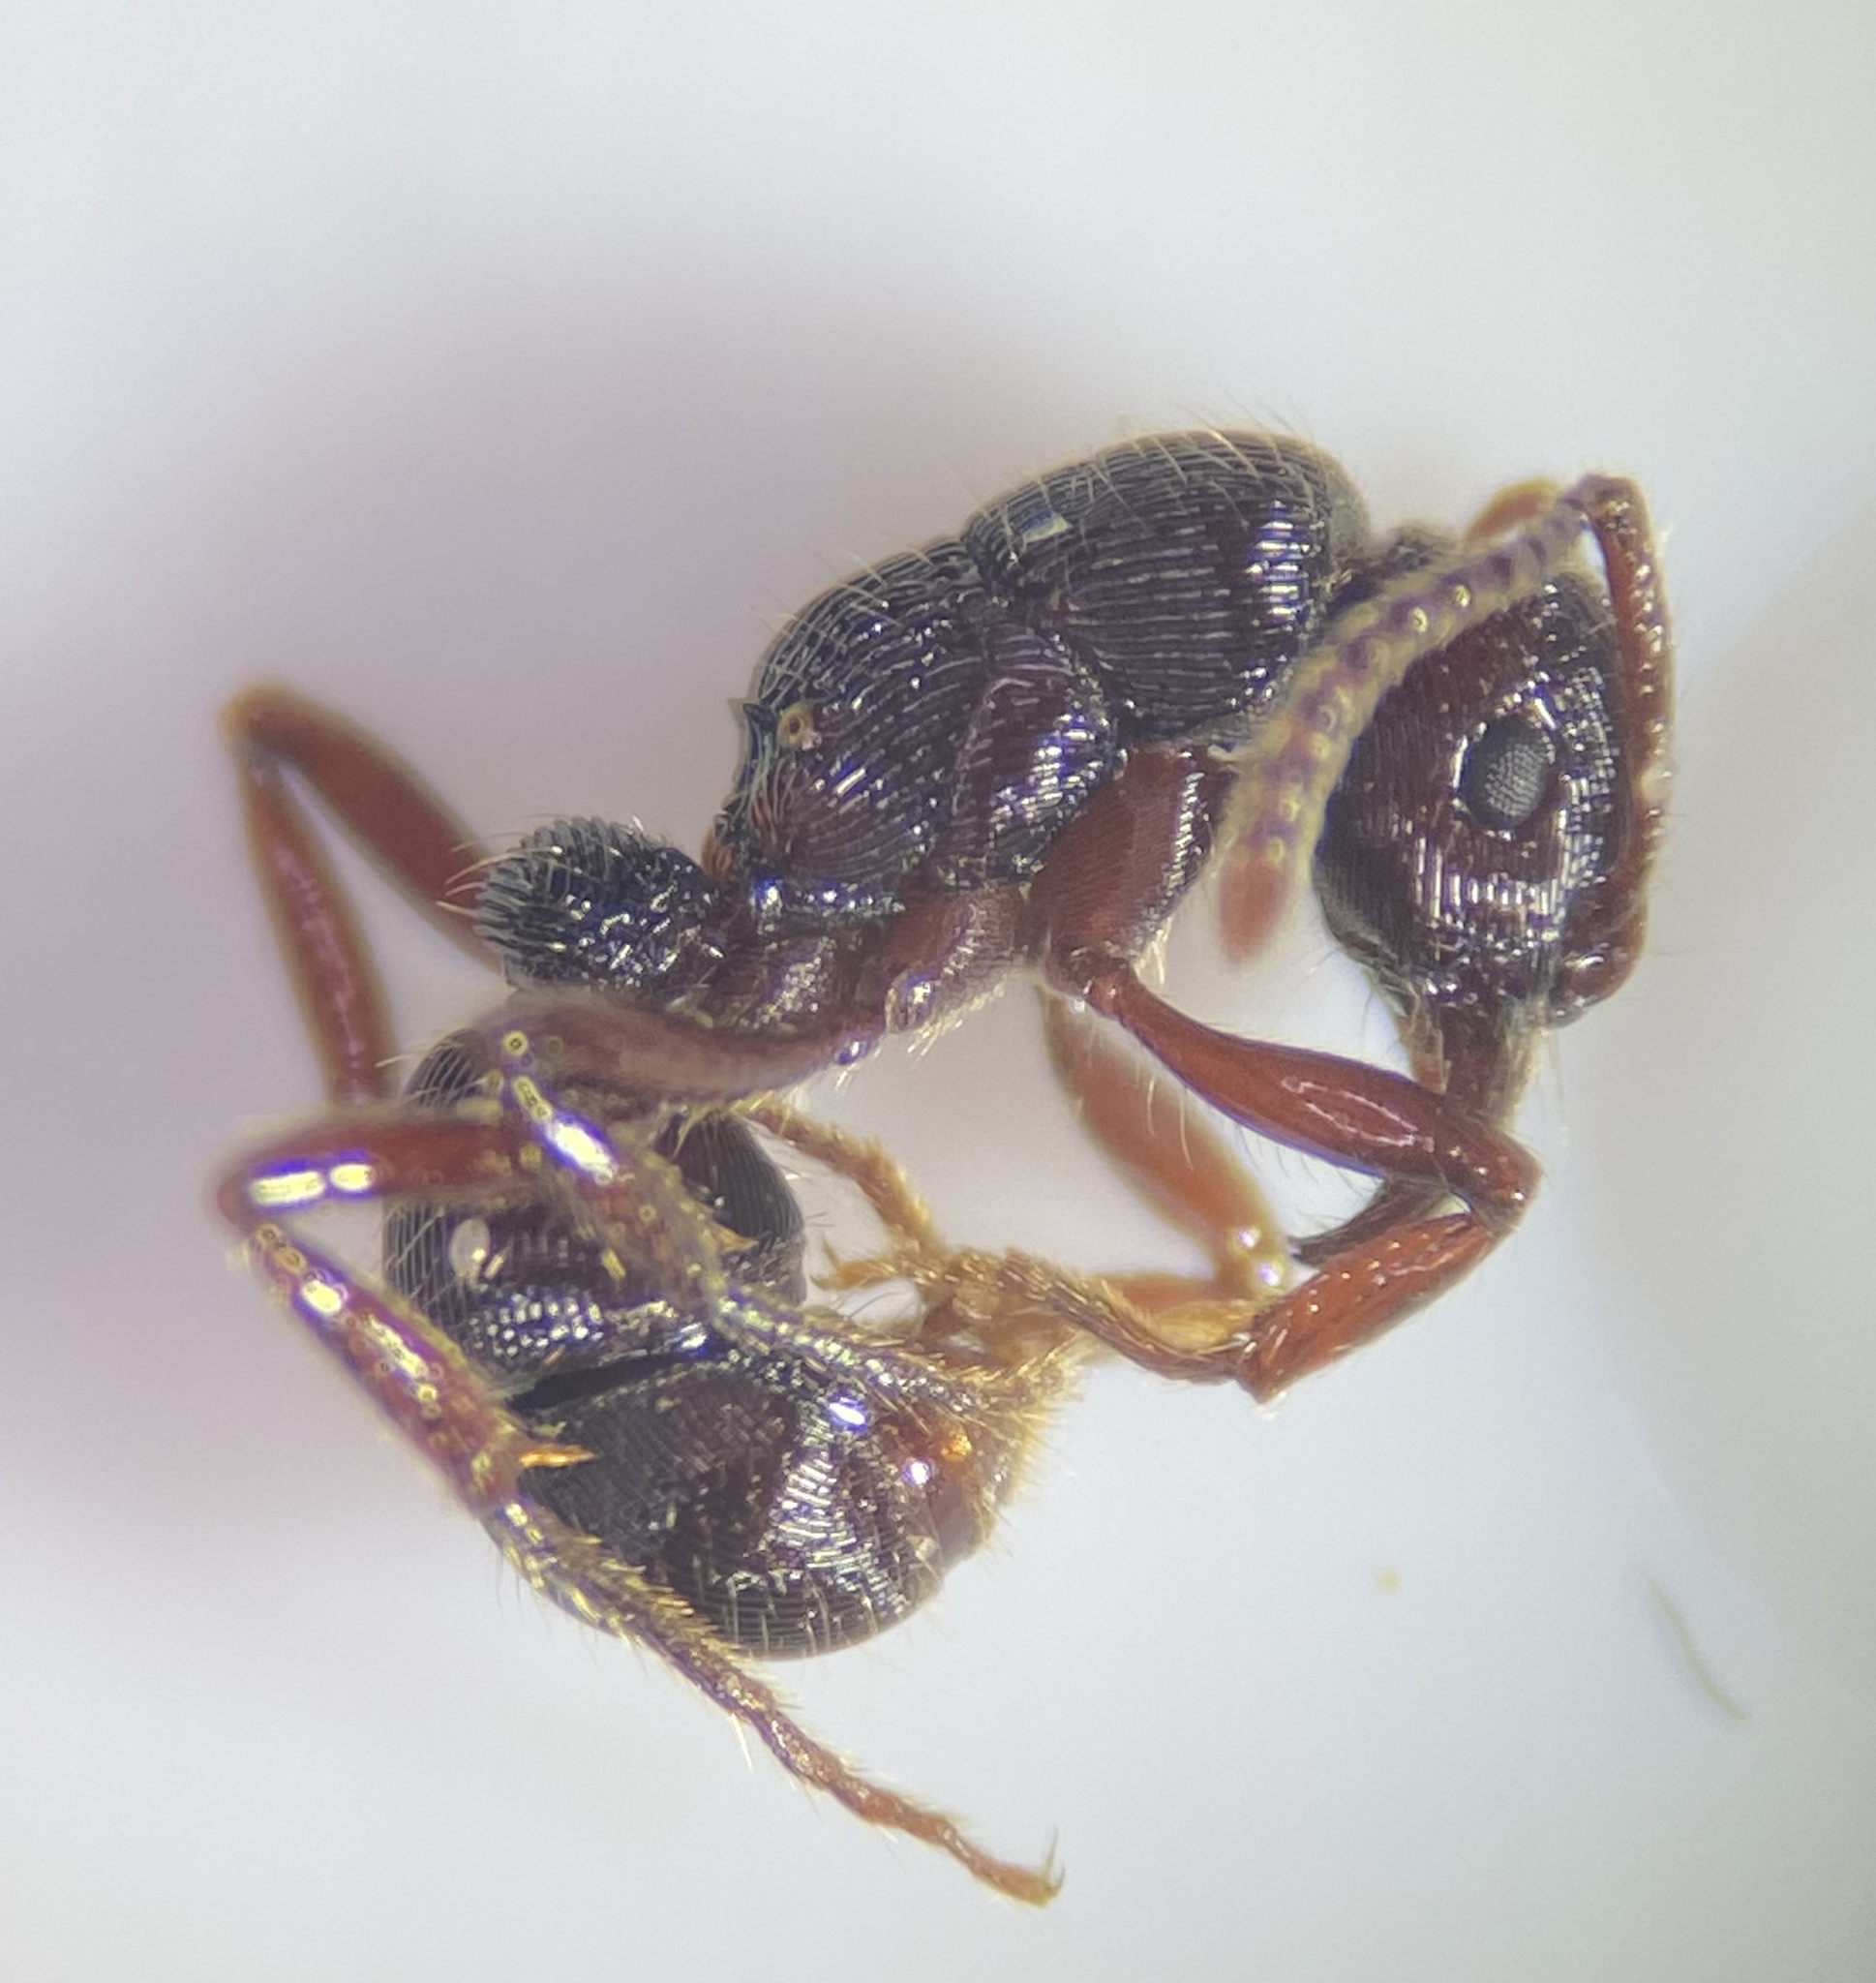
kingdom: Animalia
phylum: Arthropoda
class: Insecta
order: Hymenoptera
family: Formicidae
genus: Gnamptogenys
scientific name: Gnamptogenys triangularis
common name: South american grooved ant
